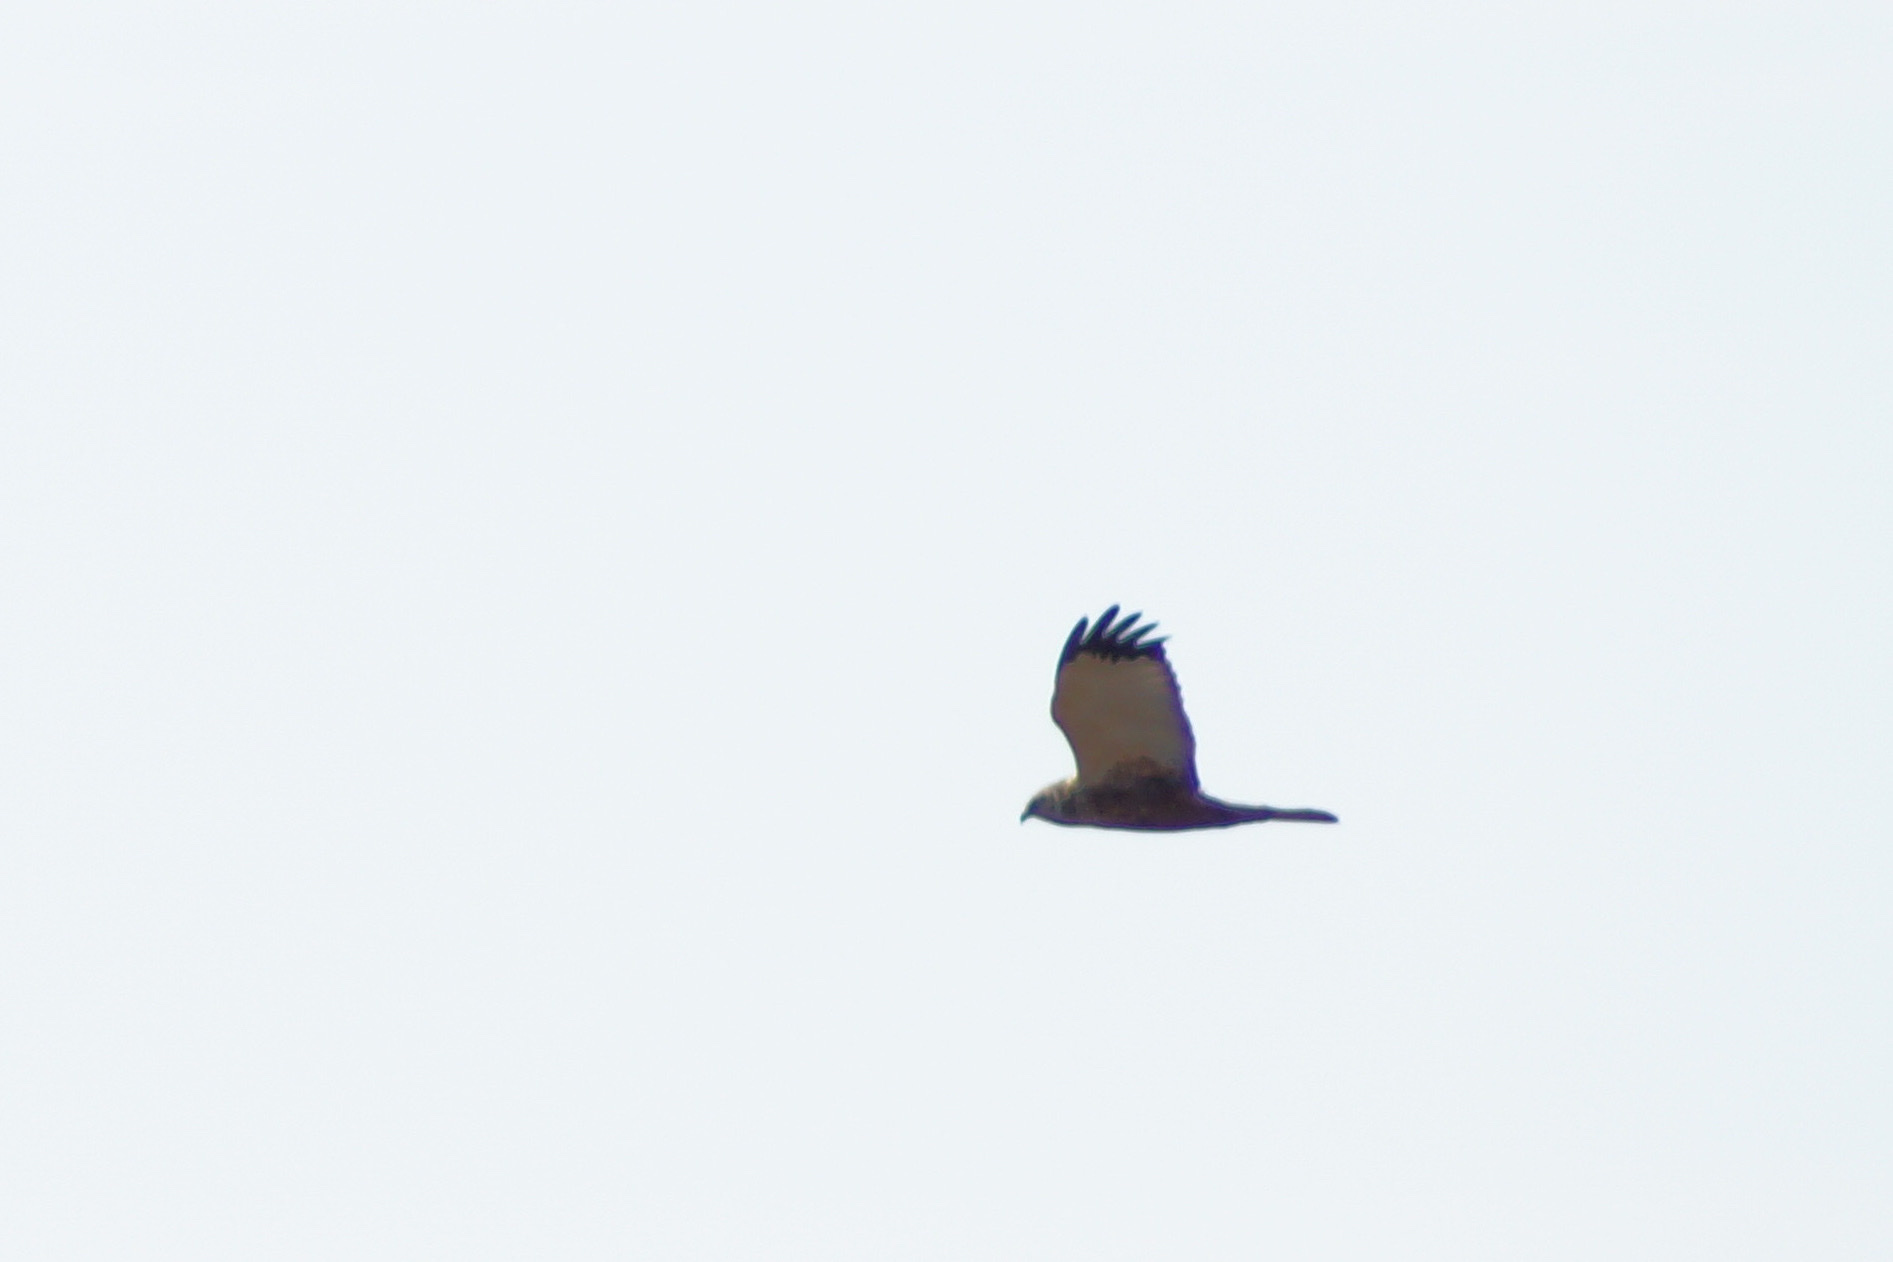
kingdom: Animalia
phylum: Chordata
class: Aves
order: Accipitriformes
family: Accipitridae
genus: Circus
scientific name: Circus aeruginosus
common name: Western marsh harrier
